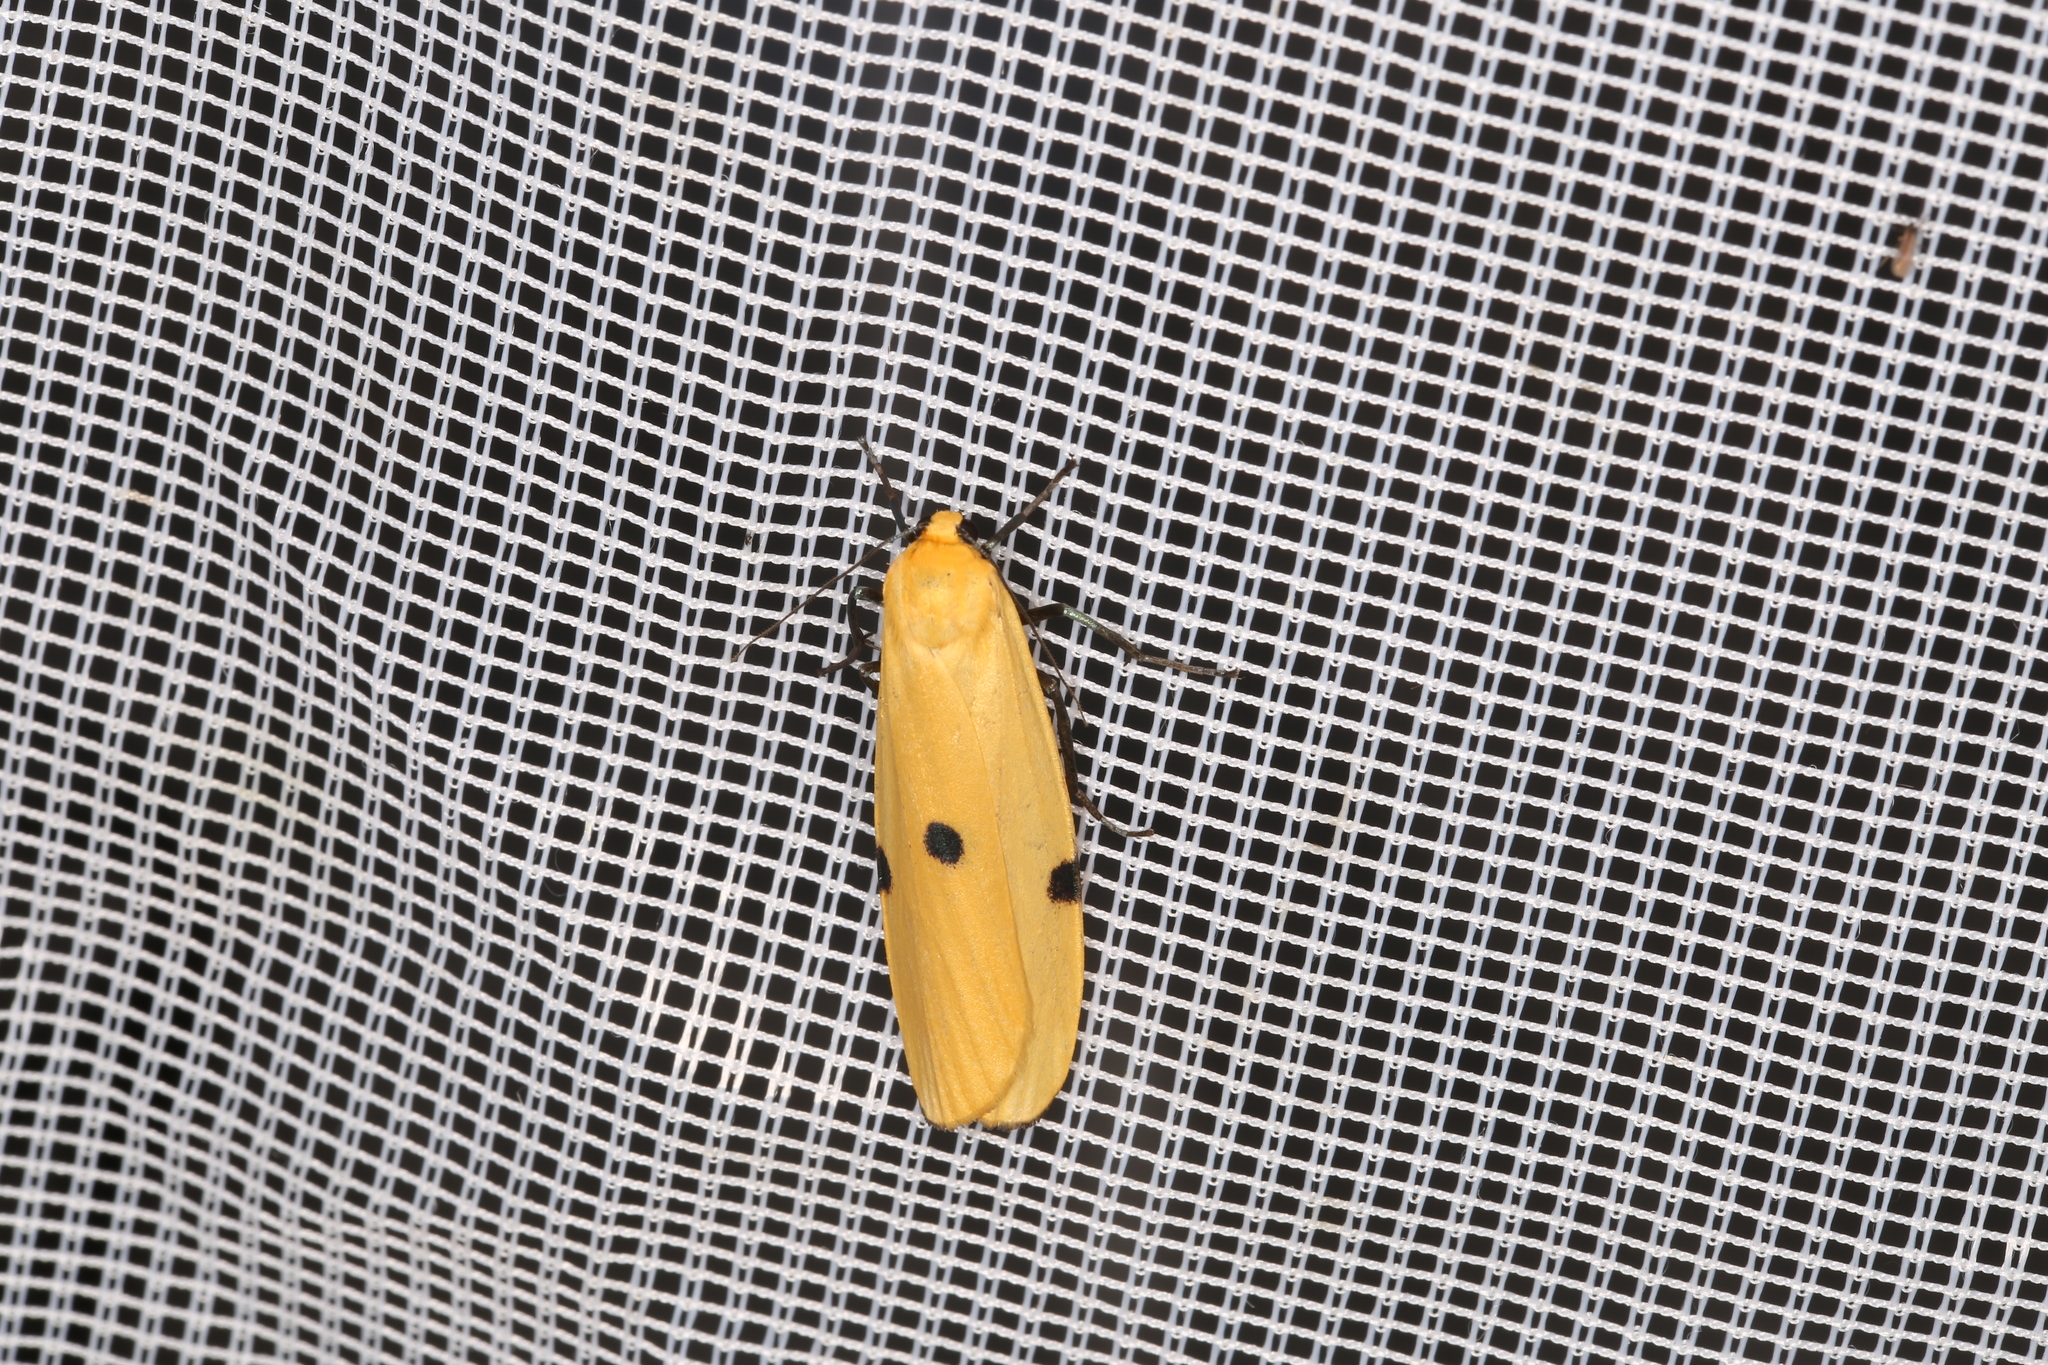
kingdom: Animalia
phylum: Arthropoda
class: Insecta
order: Lepidoptera
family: Erebidae
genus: Lithosia
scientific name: Lithosia quadra
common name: Four-spotted footman
